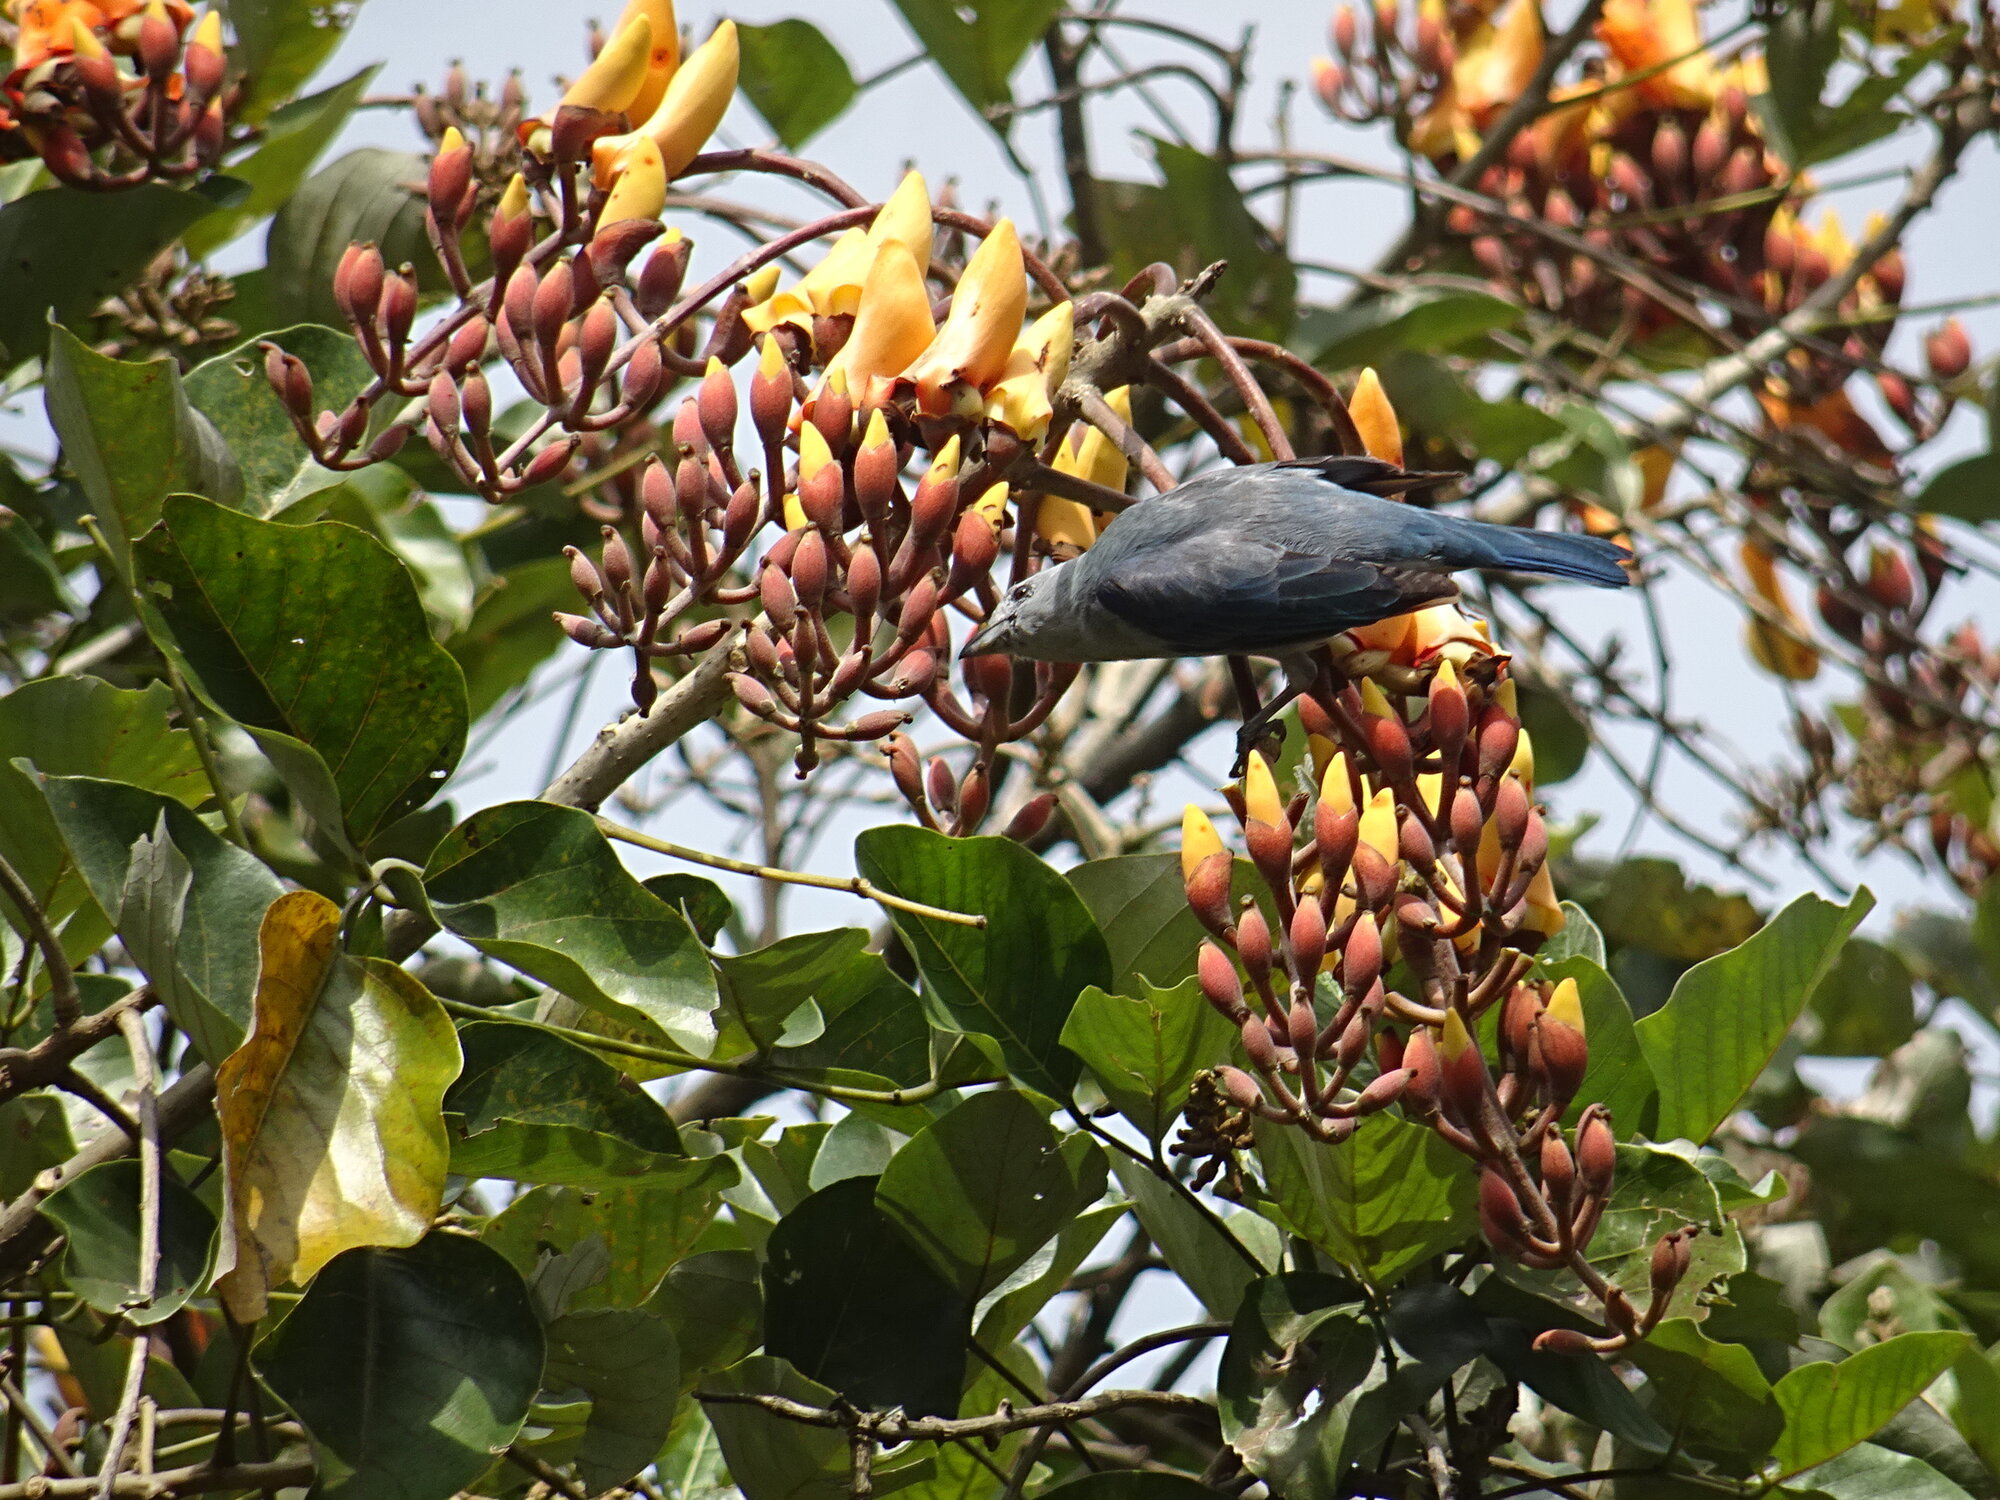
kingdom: Animalia
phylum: Chordata
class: Aves
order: Passeriformes
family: Thraupidae
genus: Thraupis
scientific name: Thraupis episcopus
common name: Blue-grey tanager
